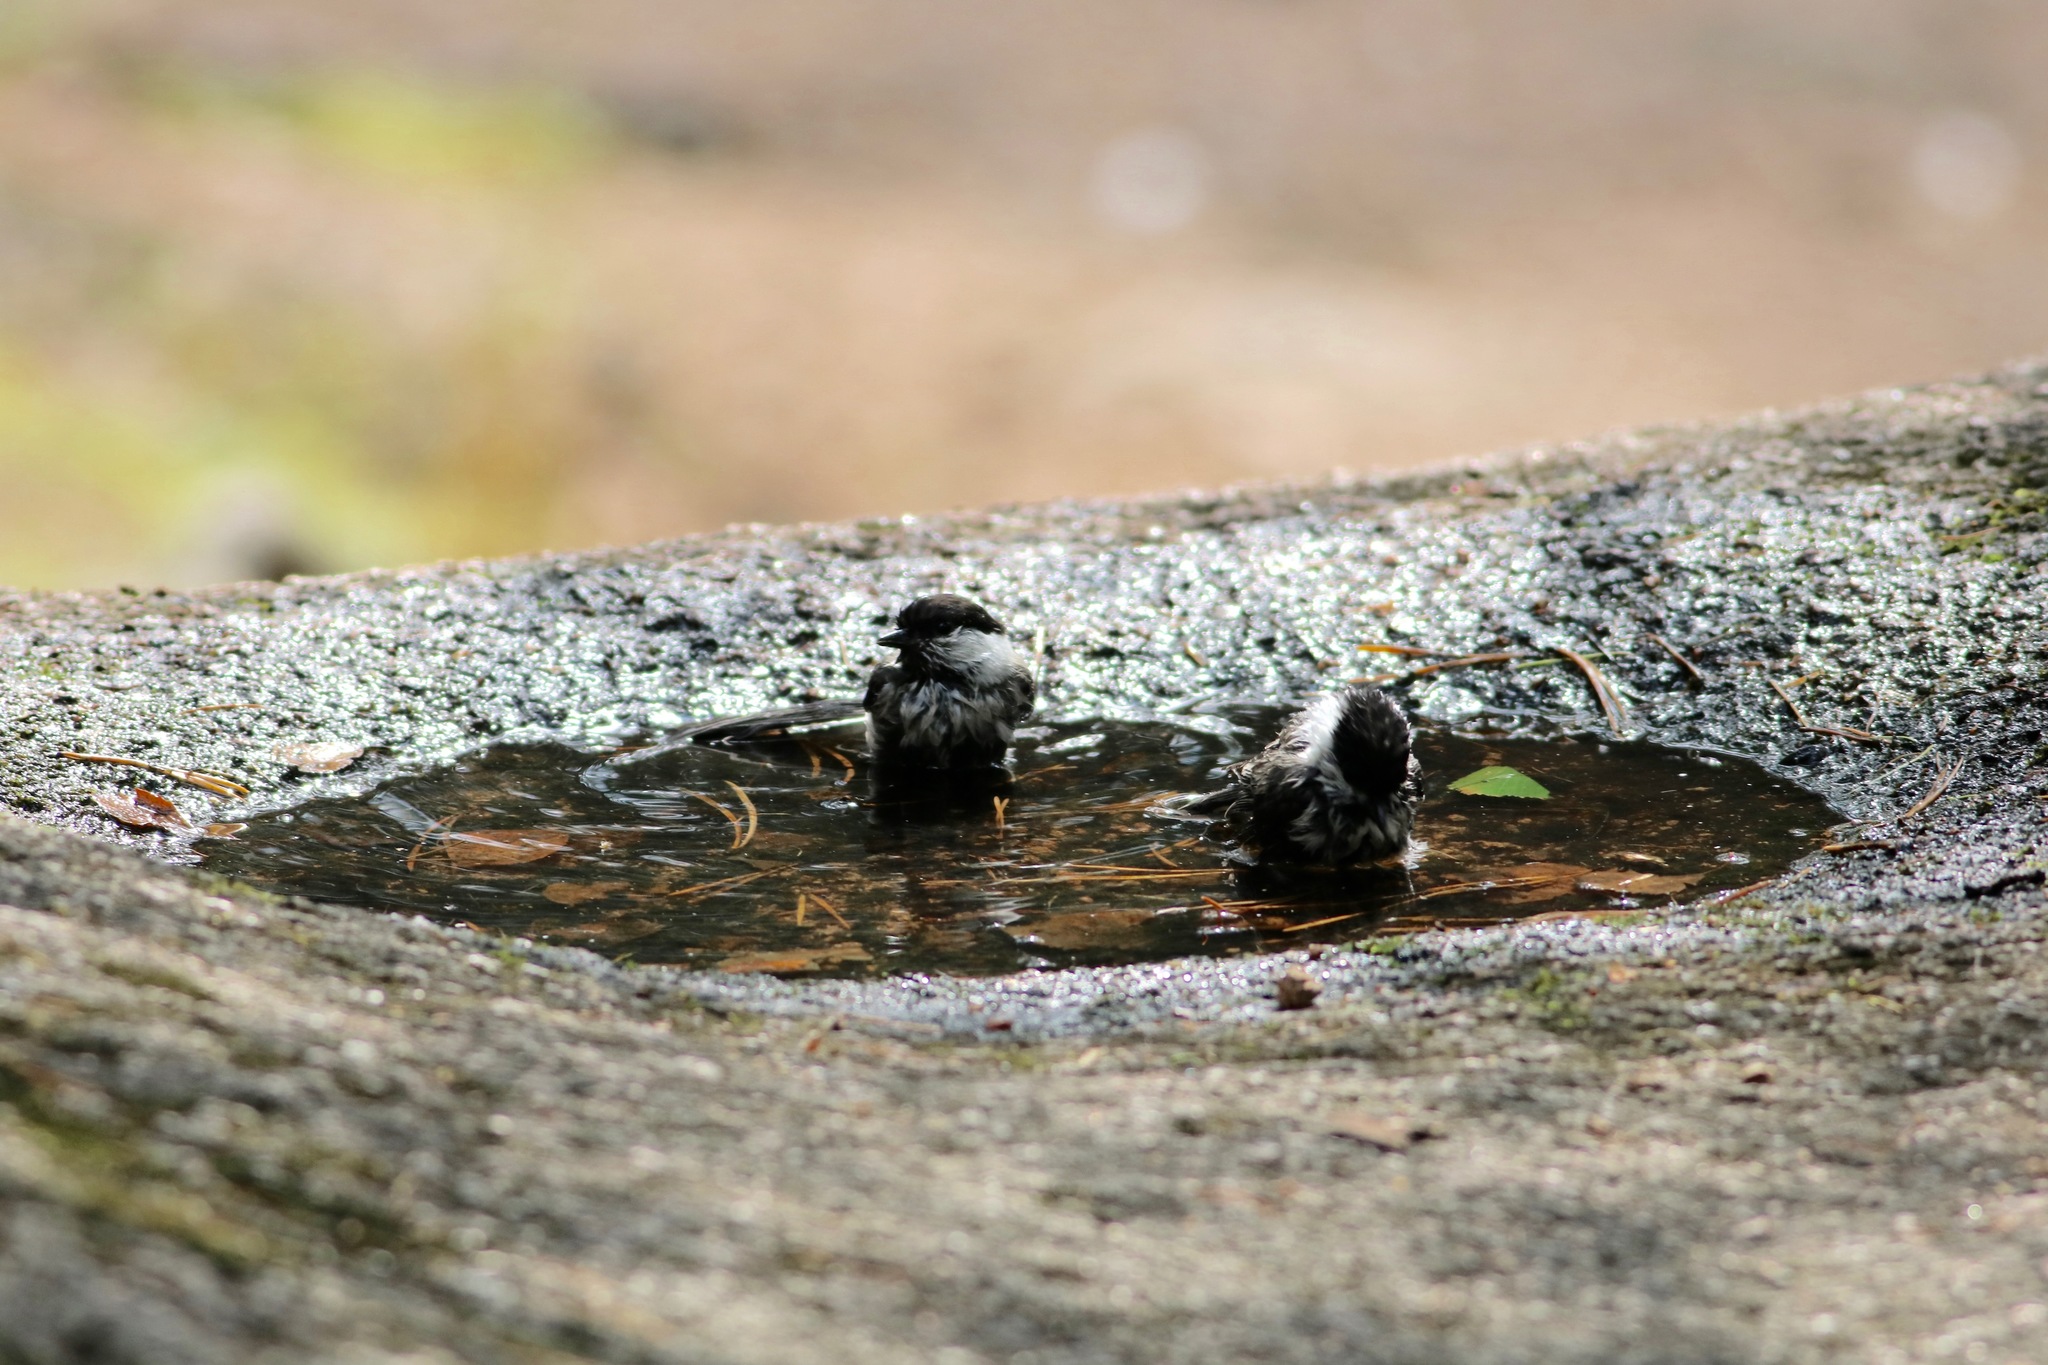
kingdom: Animalia
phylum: Chordata
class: Aves
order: Passeriformes
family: Paridae
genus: Poecile
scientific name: Poecile montanus
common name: Willow tit
